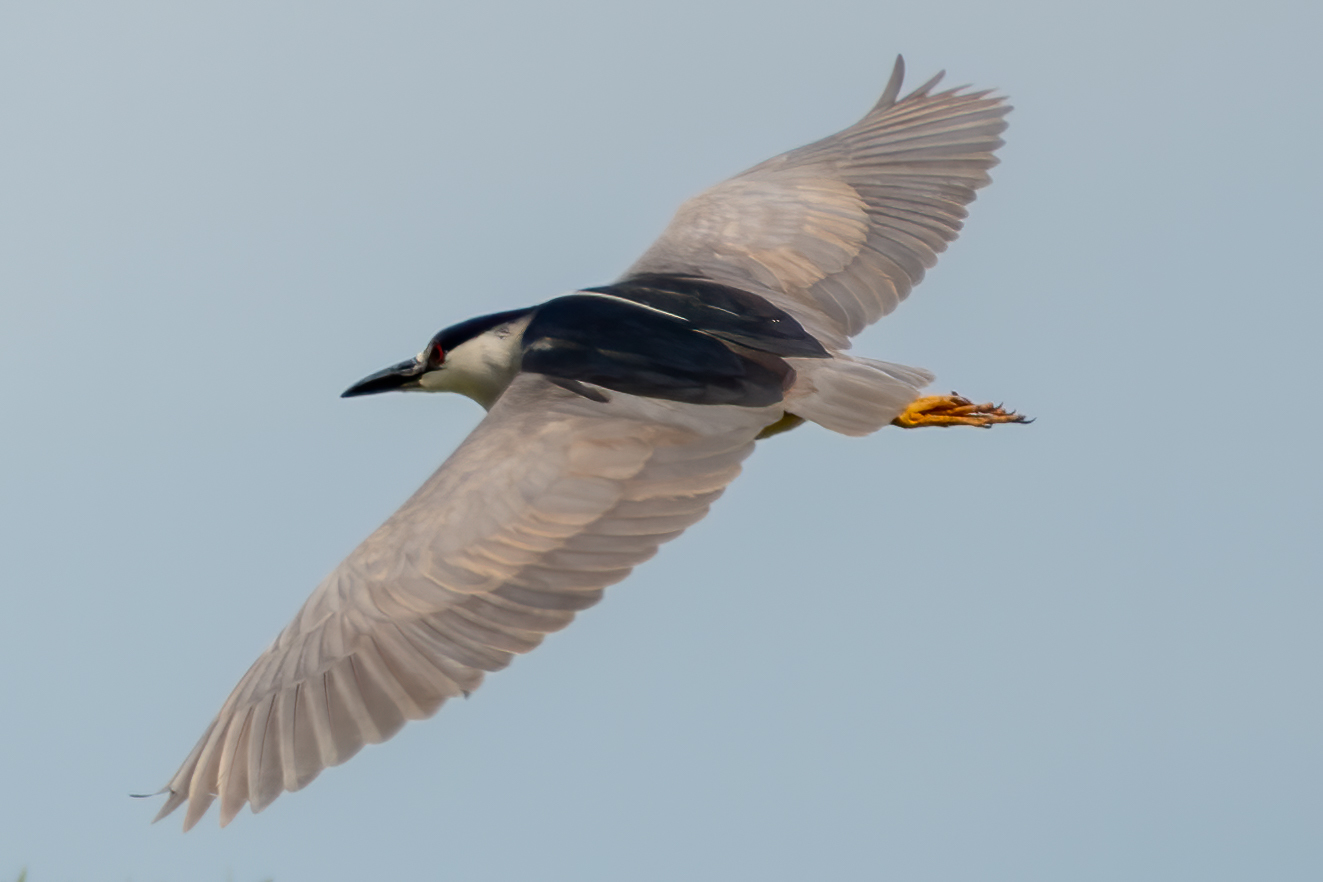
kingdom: Animalia
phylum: Chordata
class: Aves
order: Pelecaniformes
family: Ardeidae
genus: Nycticorax
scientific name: Nycticorax nycticorax
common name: Black-crowned night heron
